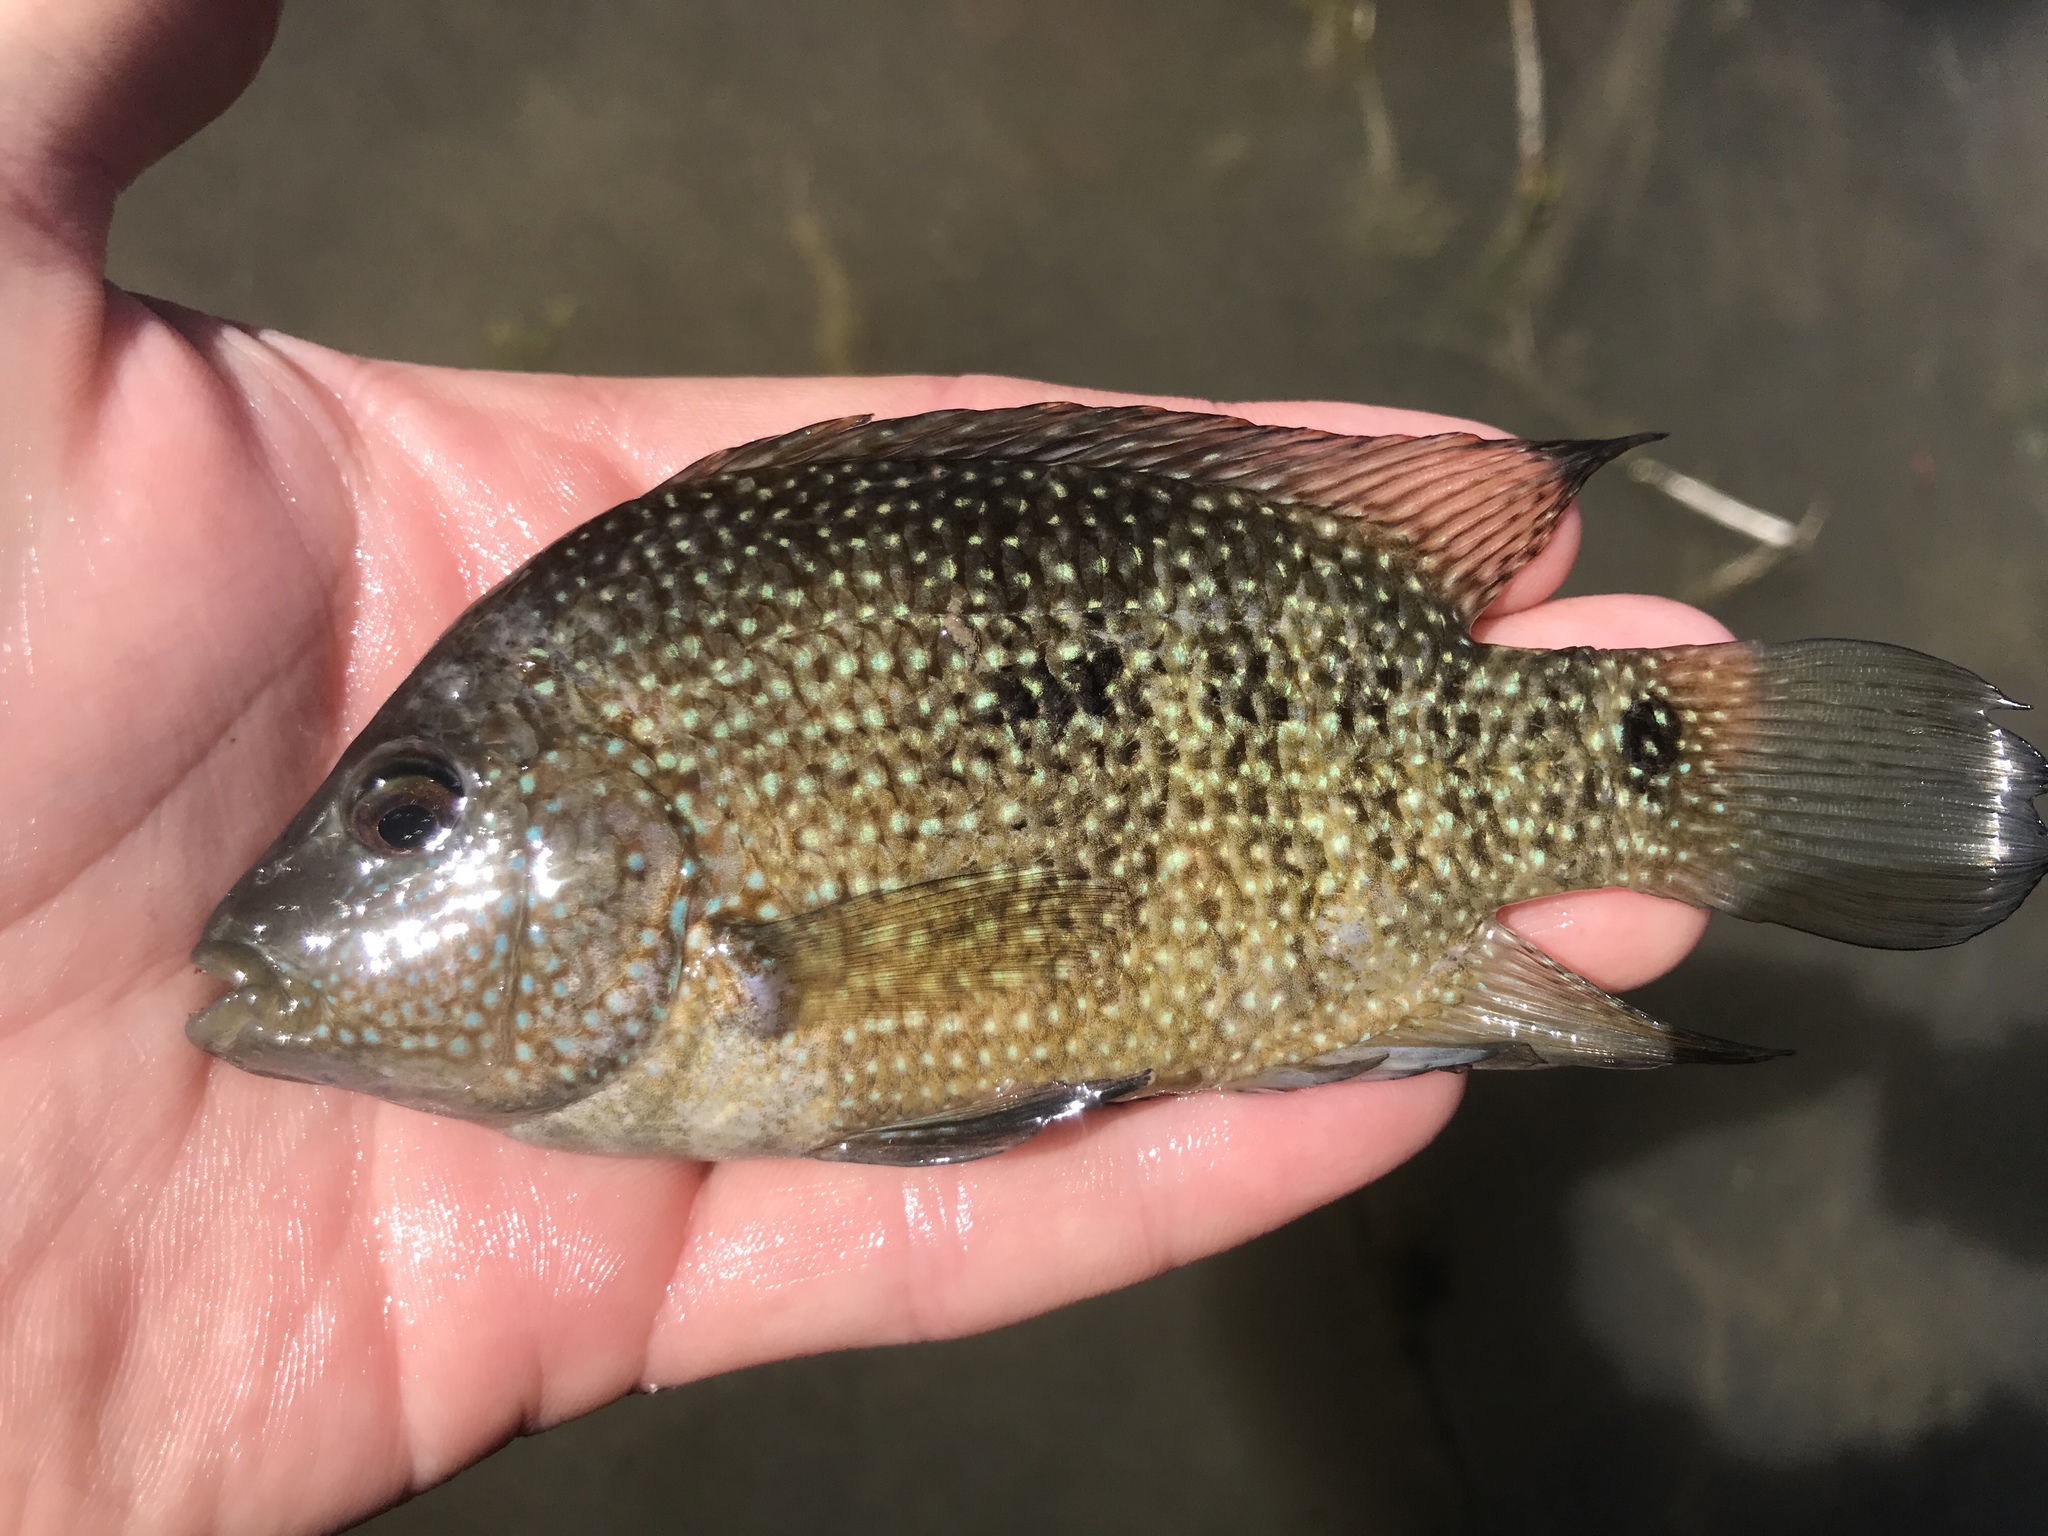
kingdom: Animalia
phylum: Chordata
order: Perciformes
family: Cichlidae
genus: Herichthys
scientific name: Herichthys cyanoguttatus
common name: Rio grande cichlid
